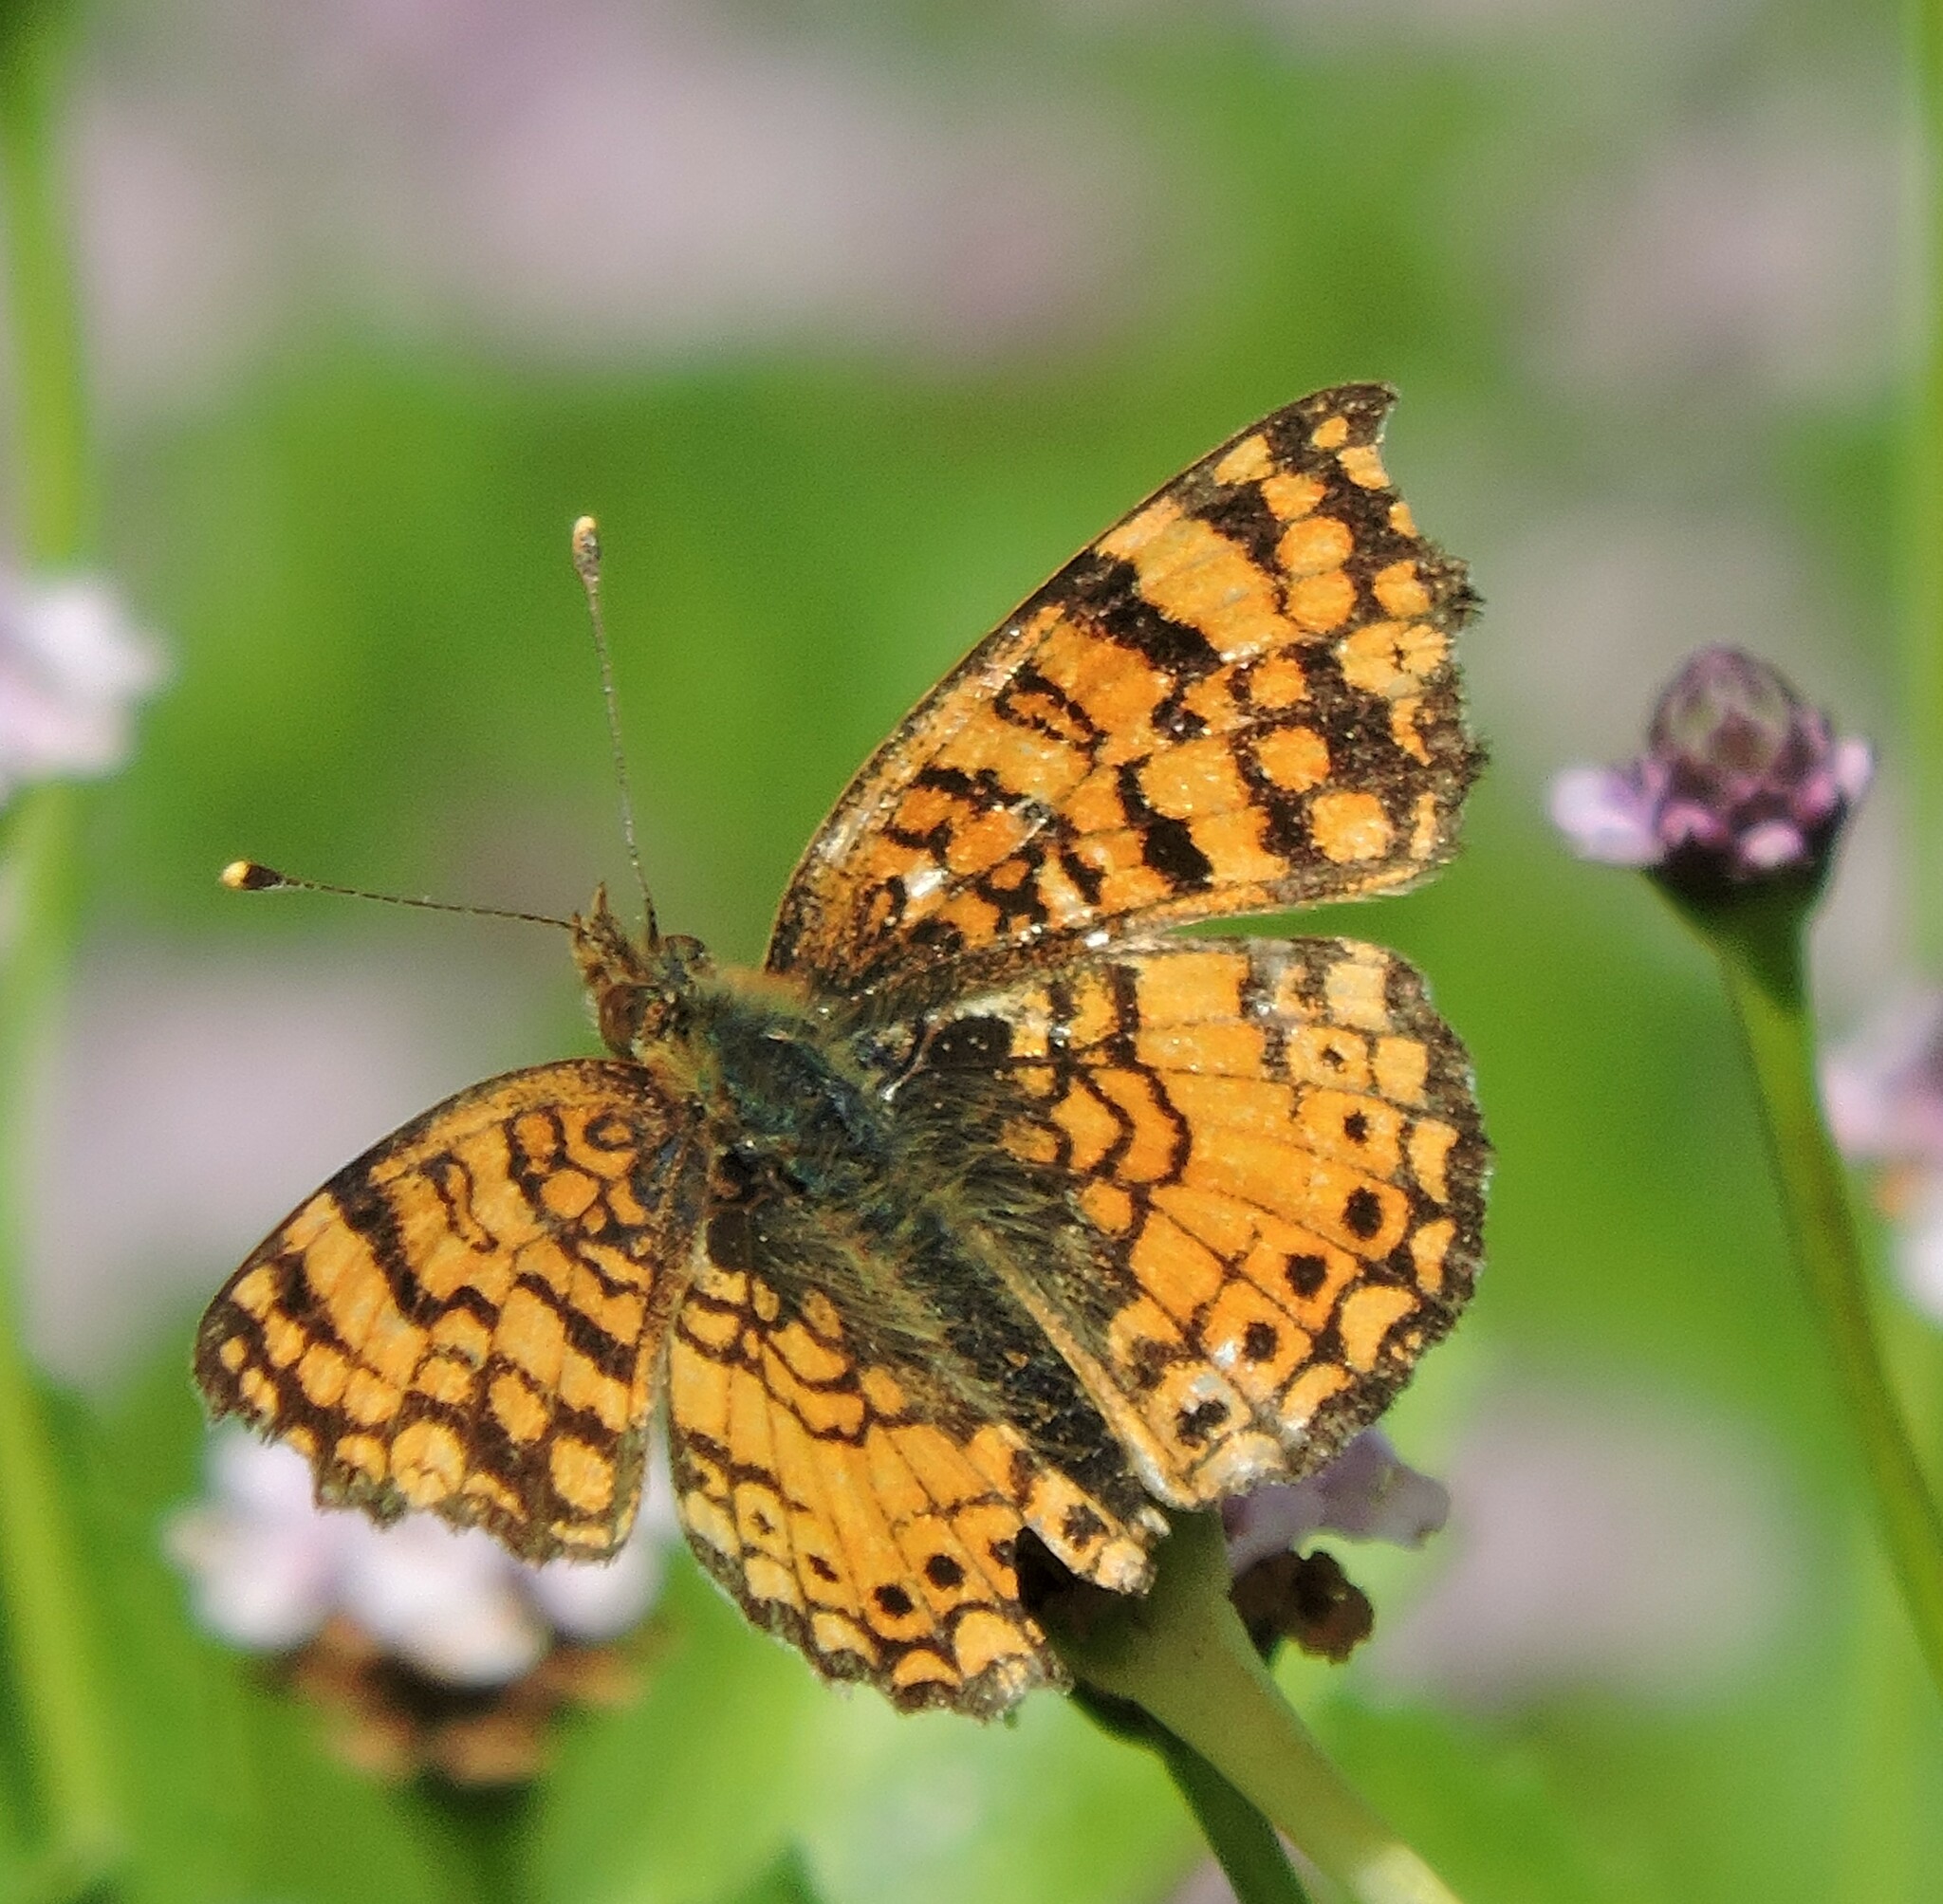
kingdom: Animalia
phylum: Arthropoda
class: Insecta
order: Lepidoptera
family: Nymphalidae
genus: Eresia
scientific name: Eresia aveyrona
